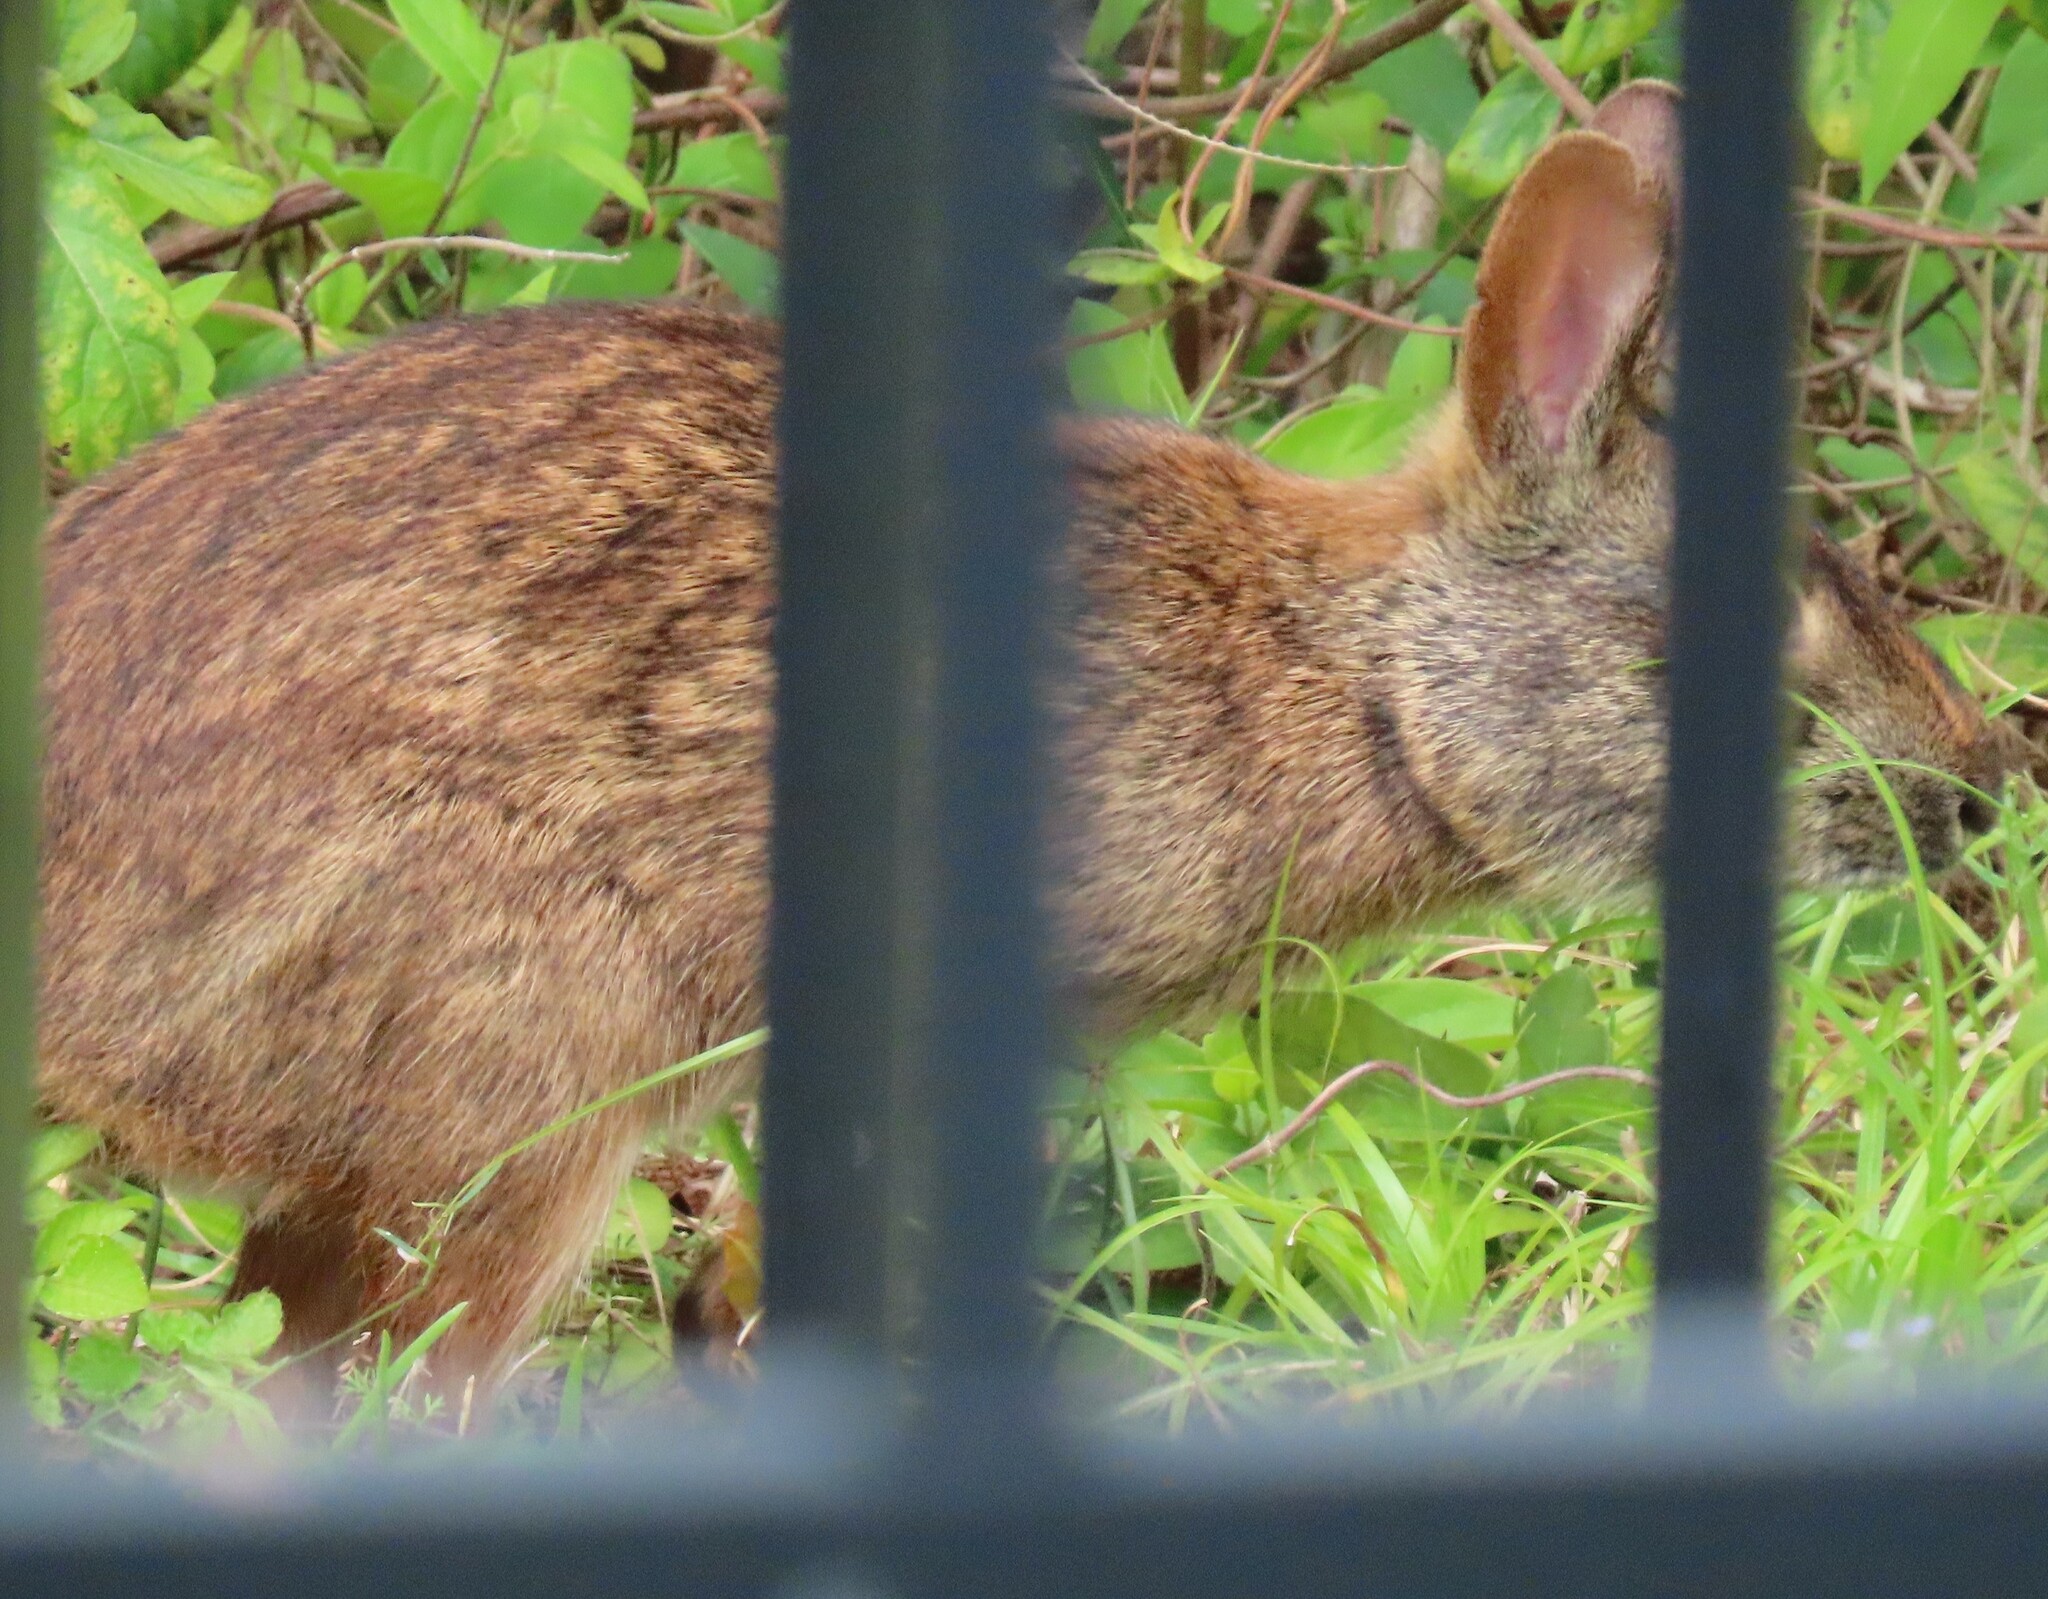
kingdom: Animalia
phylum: Chordata
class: Mammalia
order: Lagomorpha
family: Leporidae
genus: Sylvilagus
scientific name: Sylvilagus palustris
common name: Marsh rabbit
